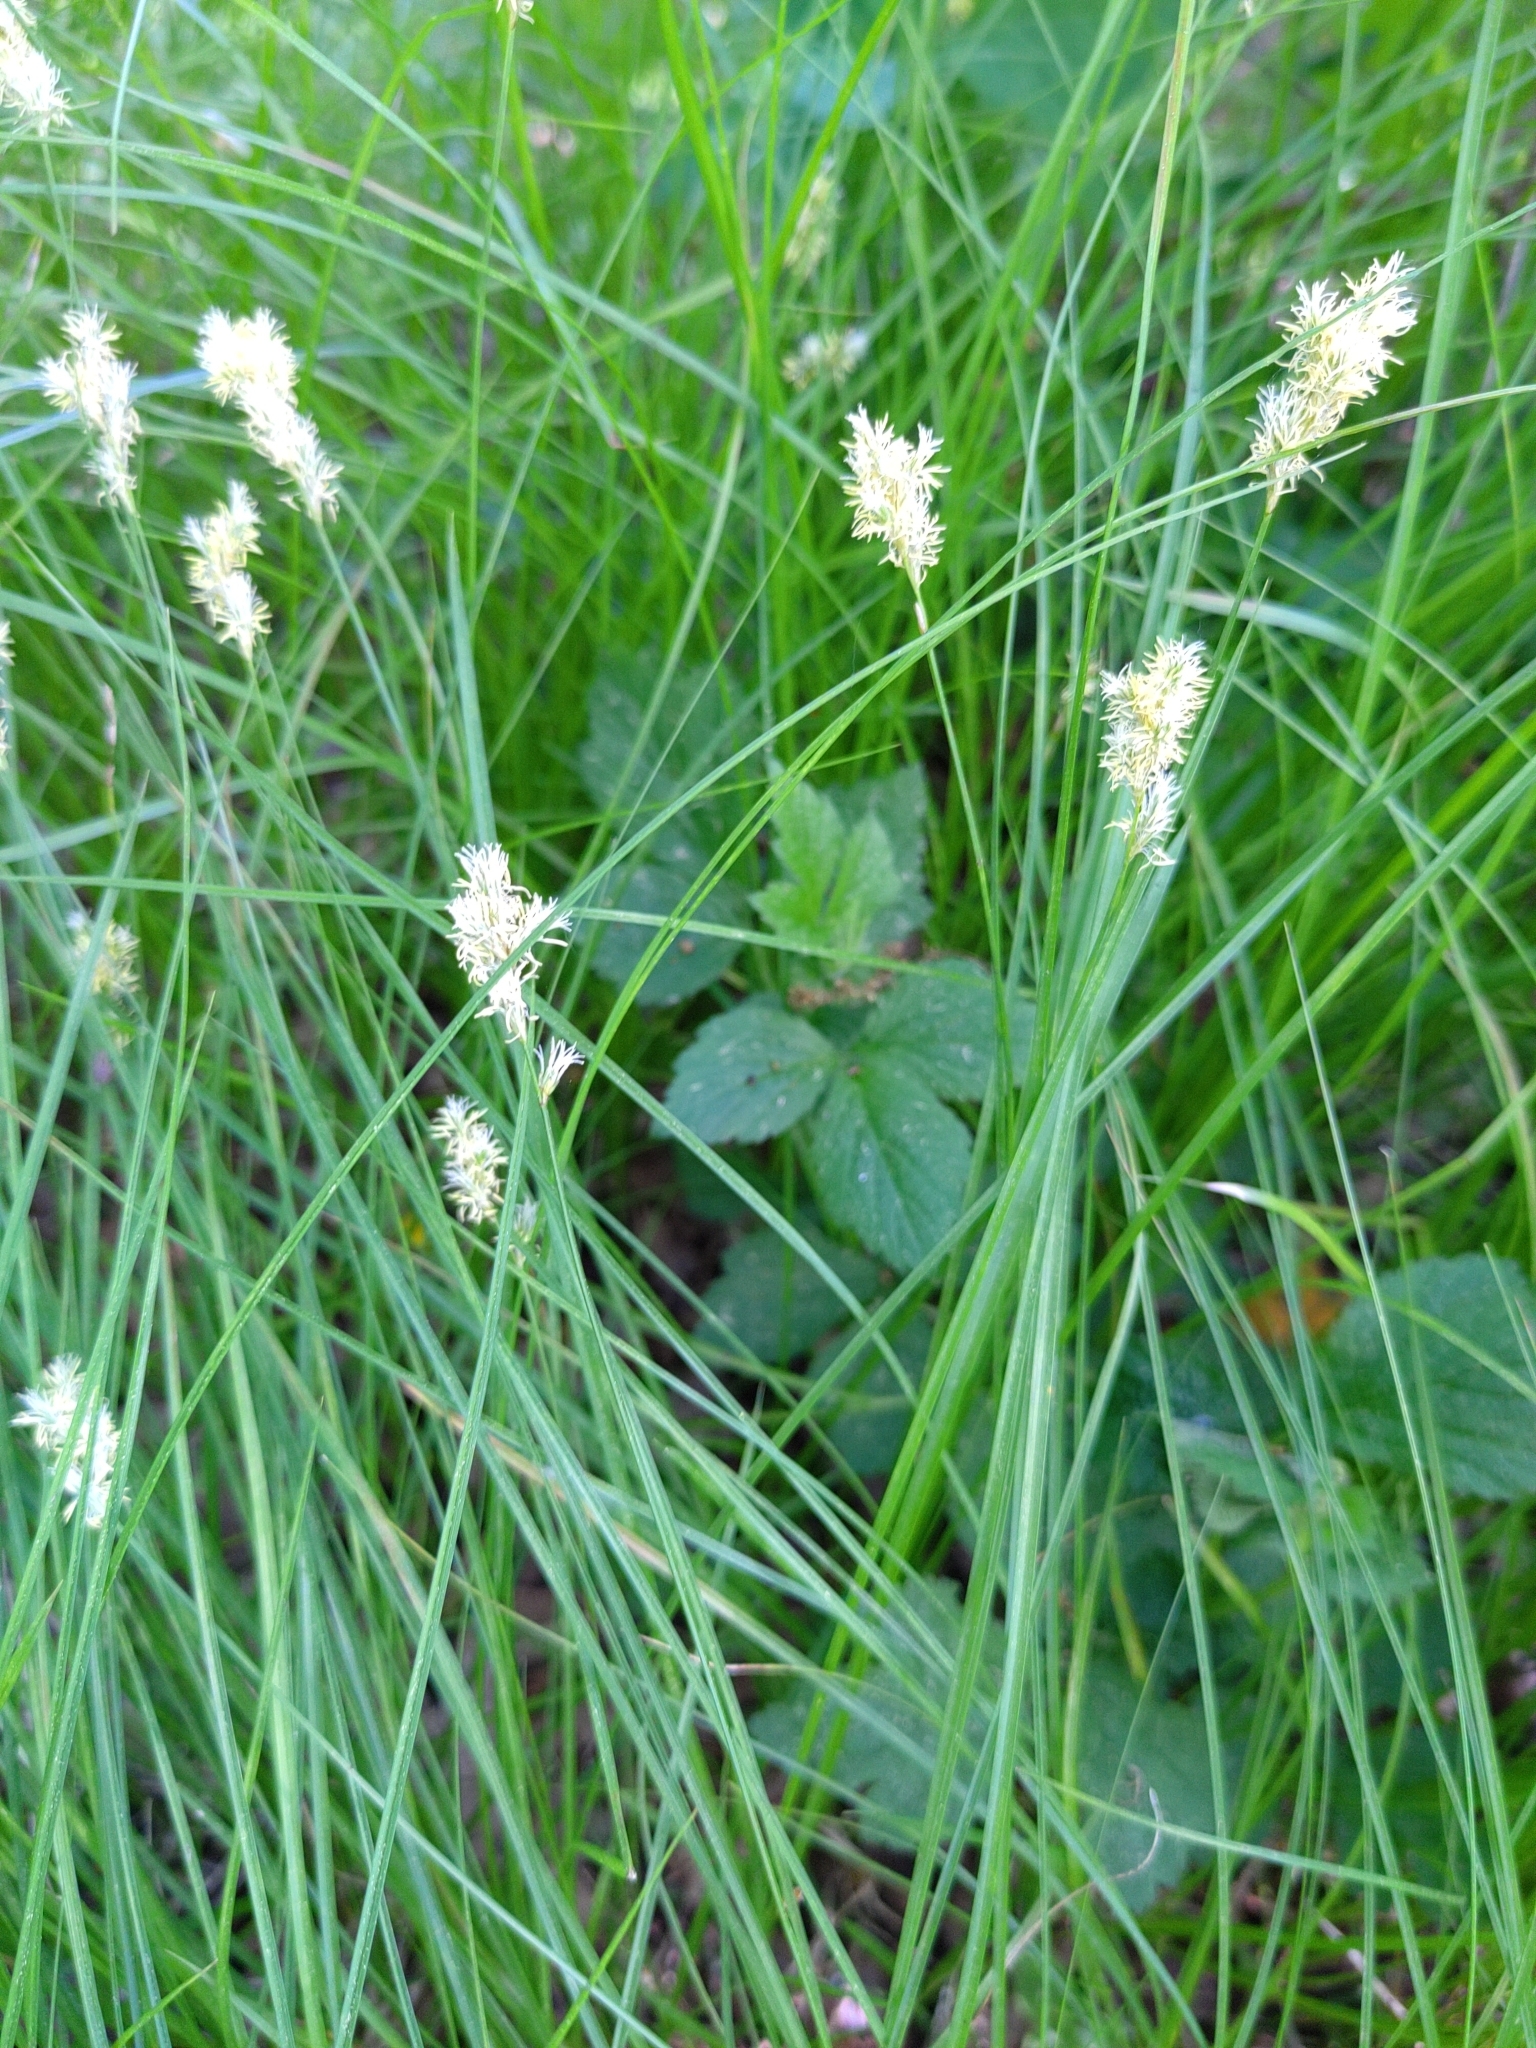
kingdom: Plantae
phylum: Tracheophyta
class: Liliopsida
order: Poales
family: Cyperaceae
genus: Carex
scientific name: Carex brizoides
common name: Quaking-grass sedge
